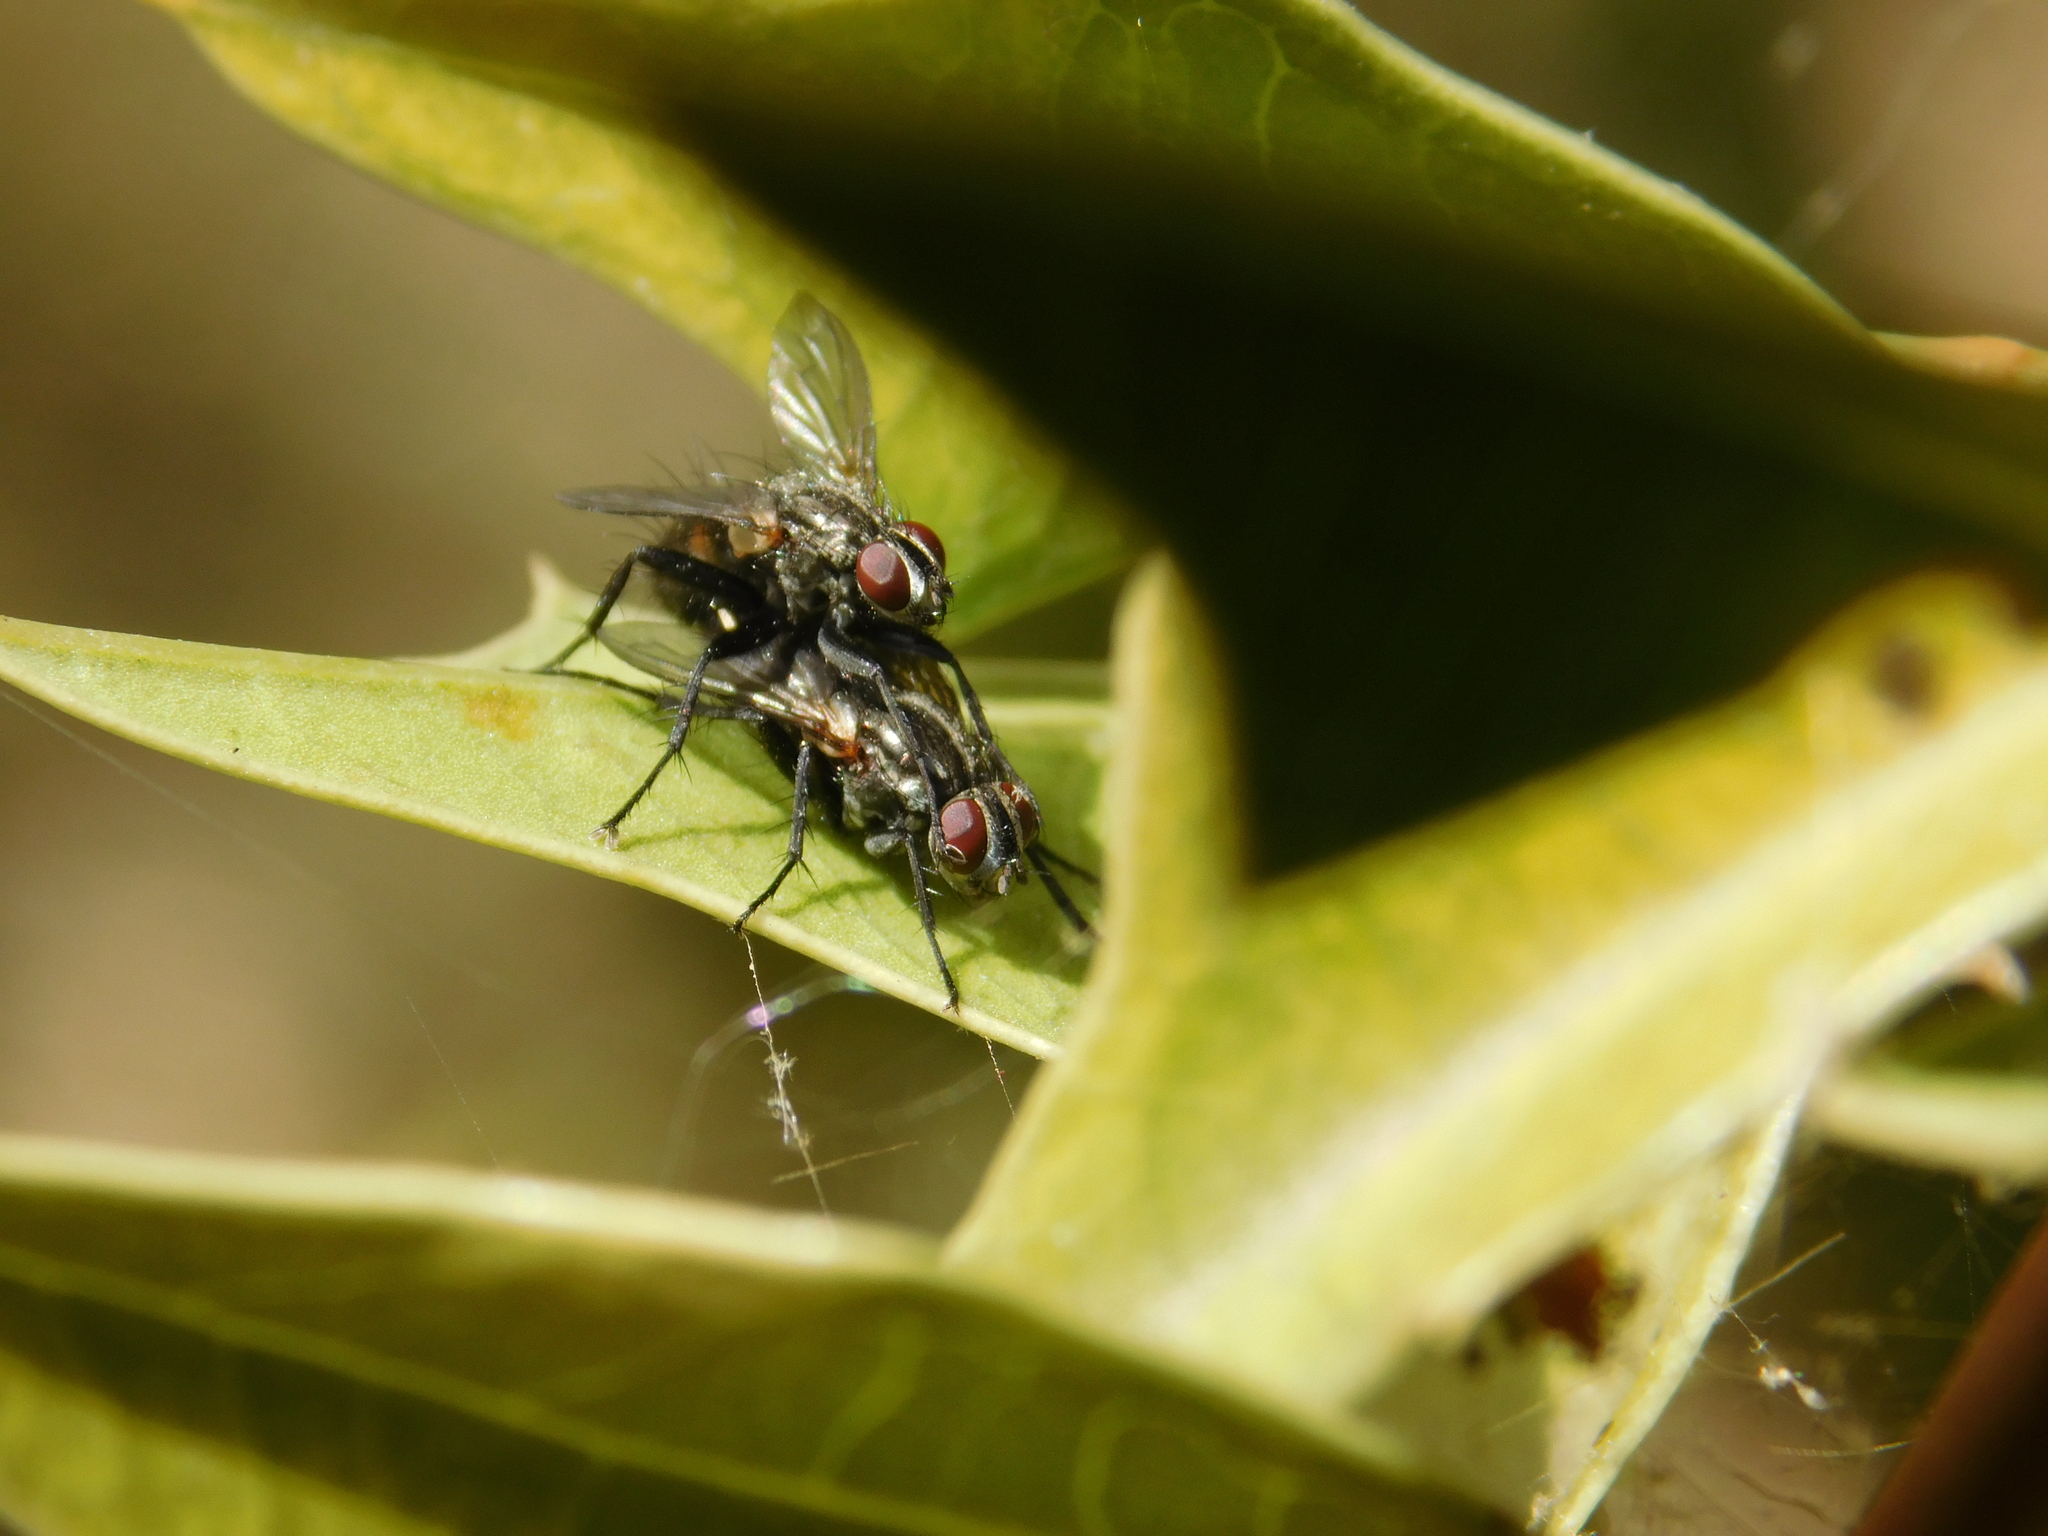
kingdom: Animalia
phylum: Arthropoda
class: Insecta
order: Diptera
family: Calliphoridae
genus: Stevenia
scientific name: Stevenia deceptoria
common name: Grizzled woodlouse-fly
